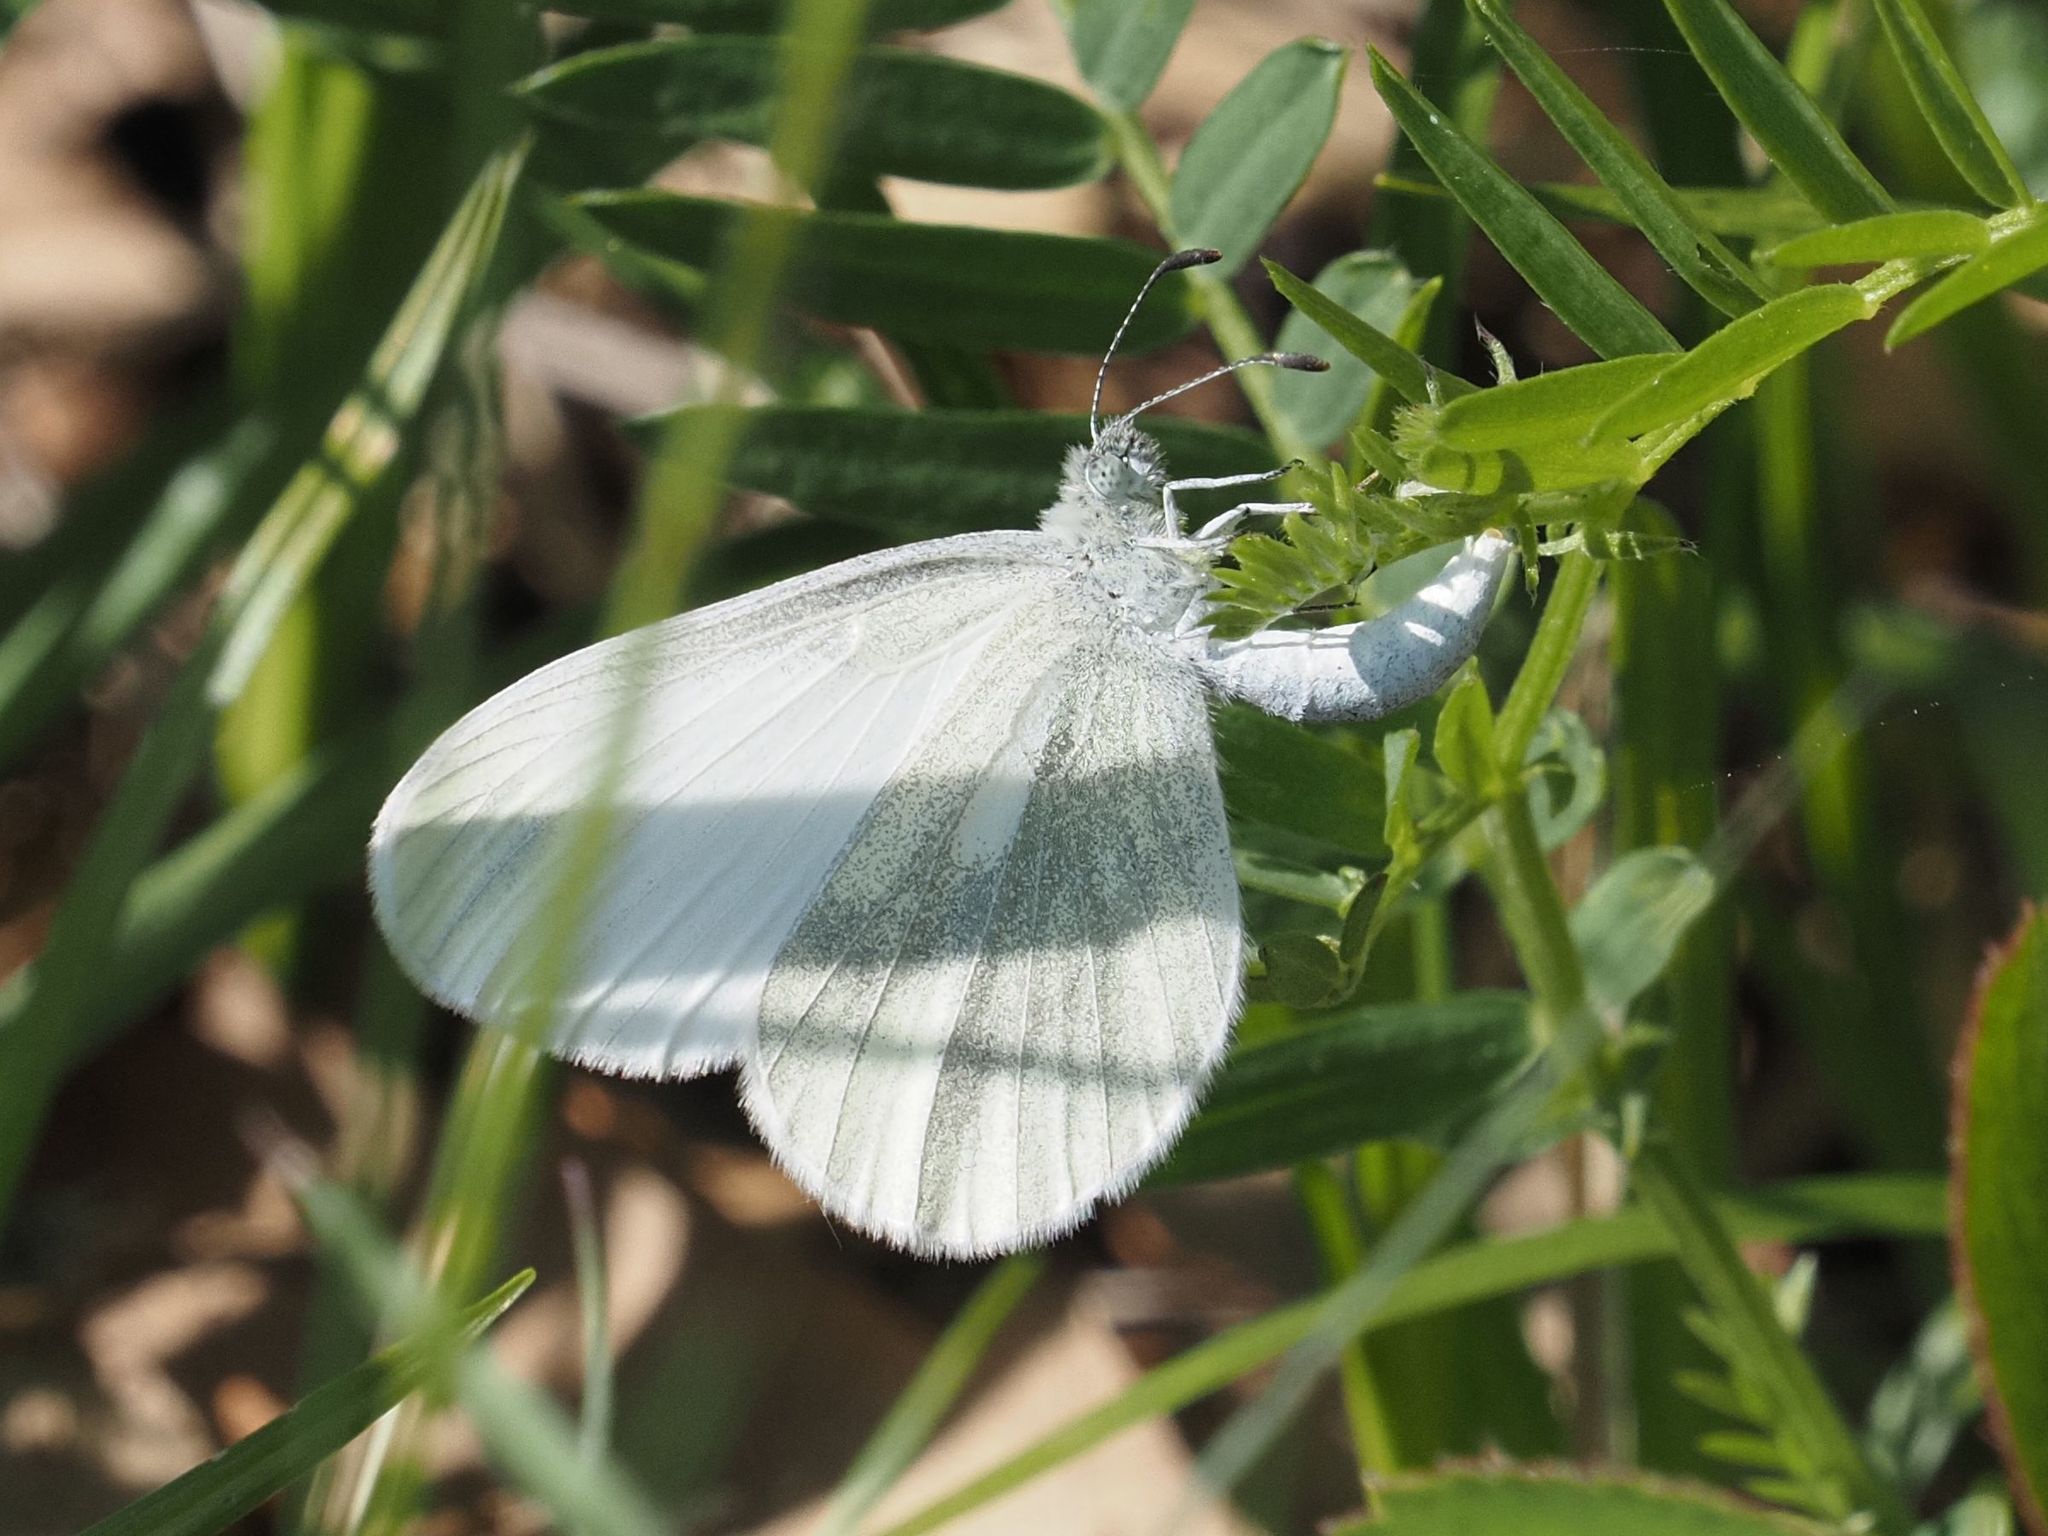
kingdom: Animalia
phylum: Arthropoda
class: Insecta
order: Lepidoptera
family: Pieridae
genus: Leptidea
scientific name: Leptidea
